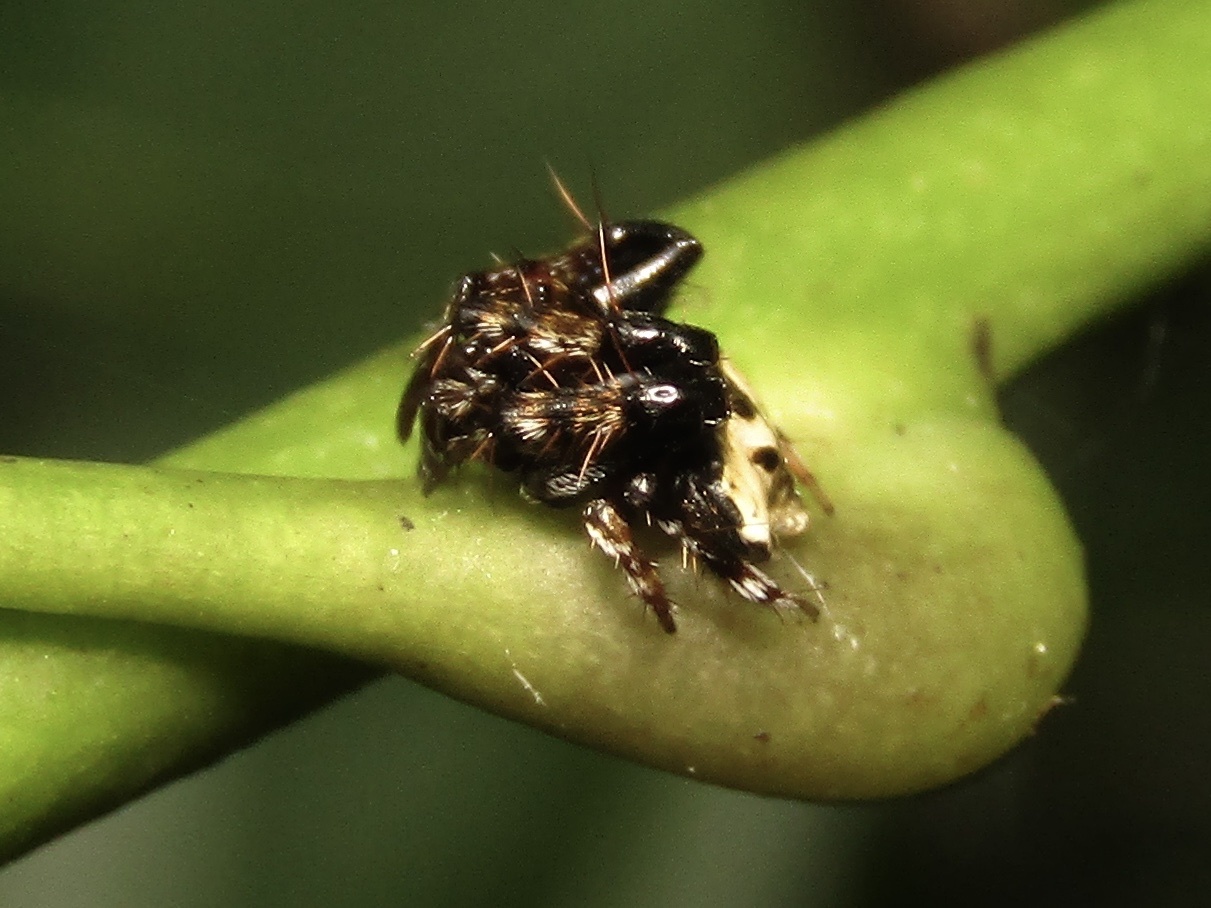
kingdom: Animalia
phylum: Arthropoda
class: Arachnida
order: Araneae
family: Arkyidae
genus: Arkys
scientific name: Arkys speechleyi
